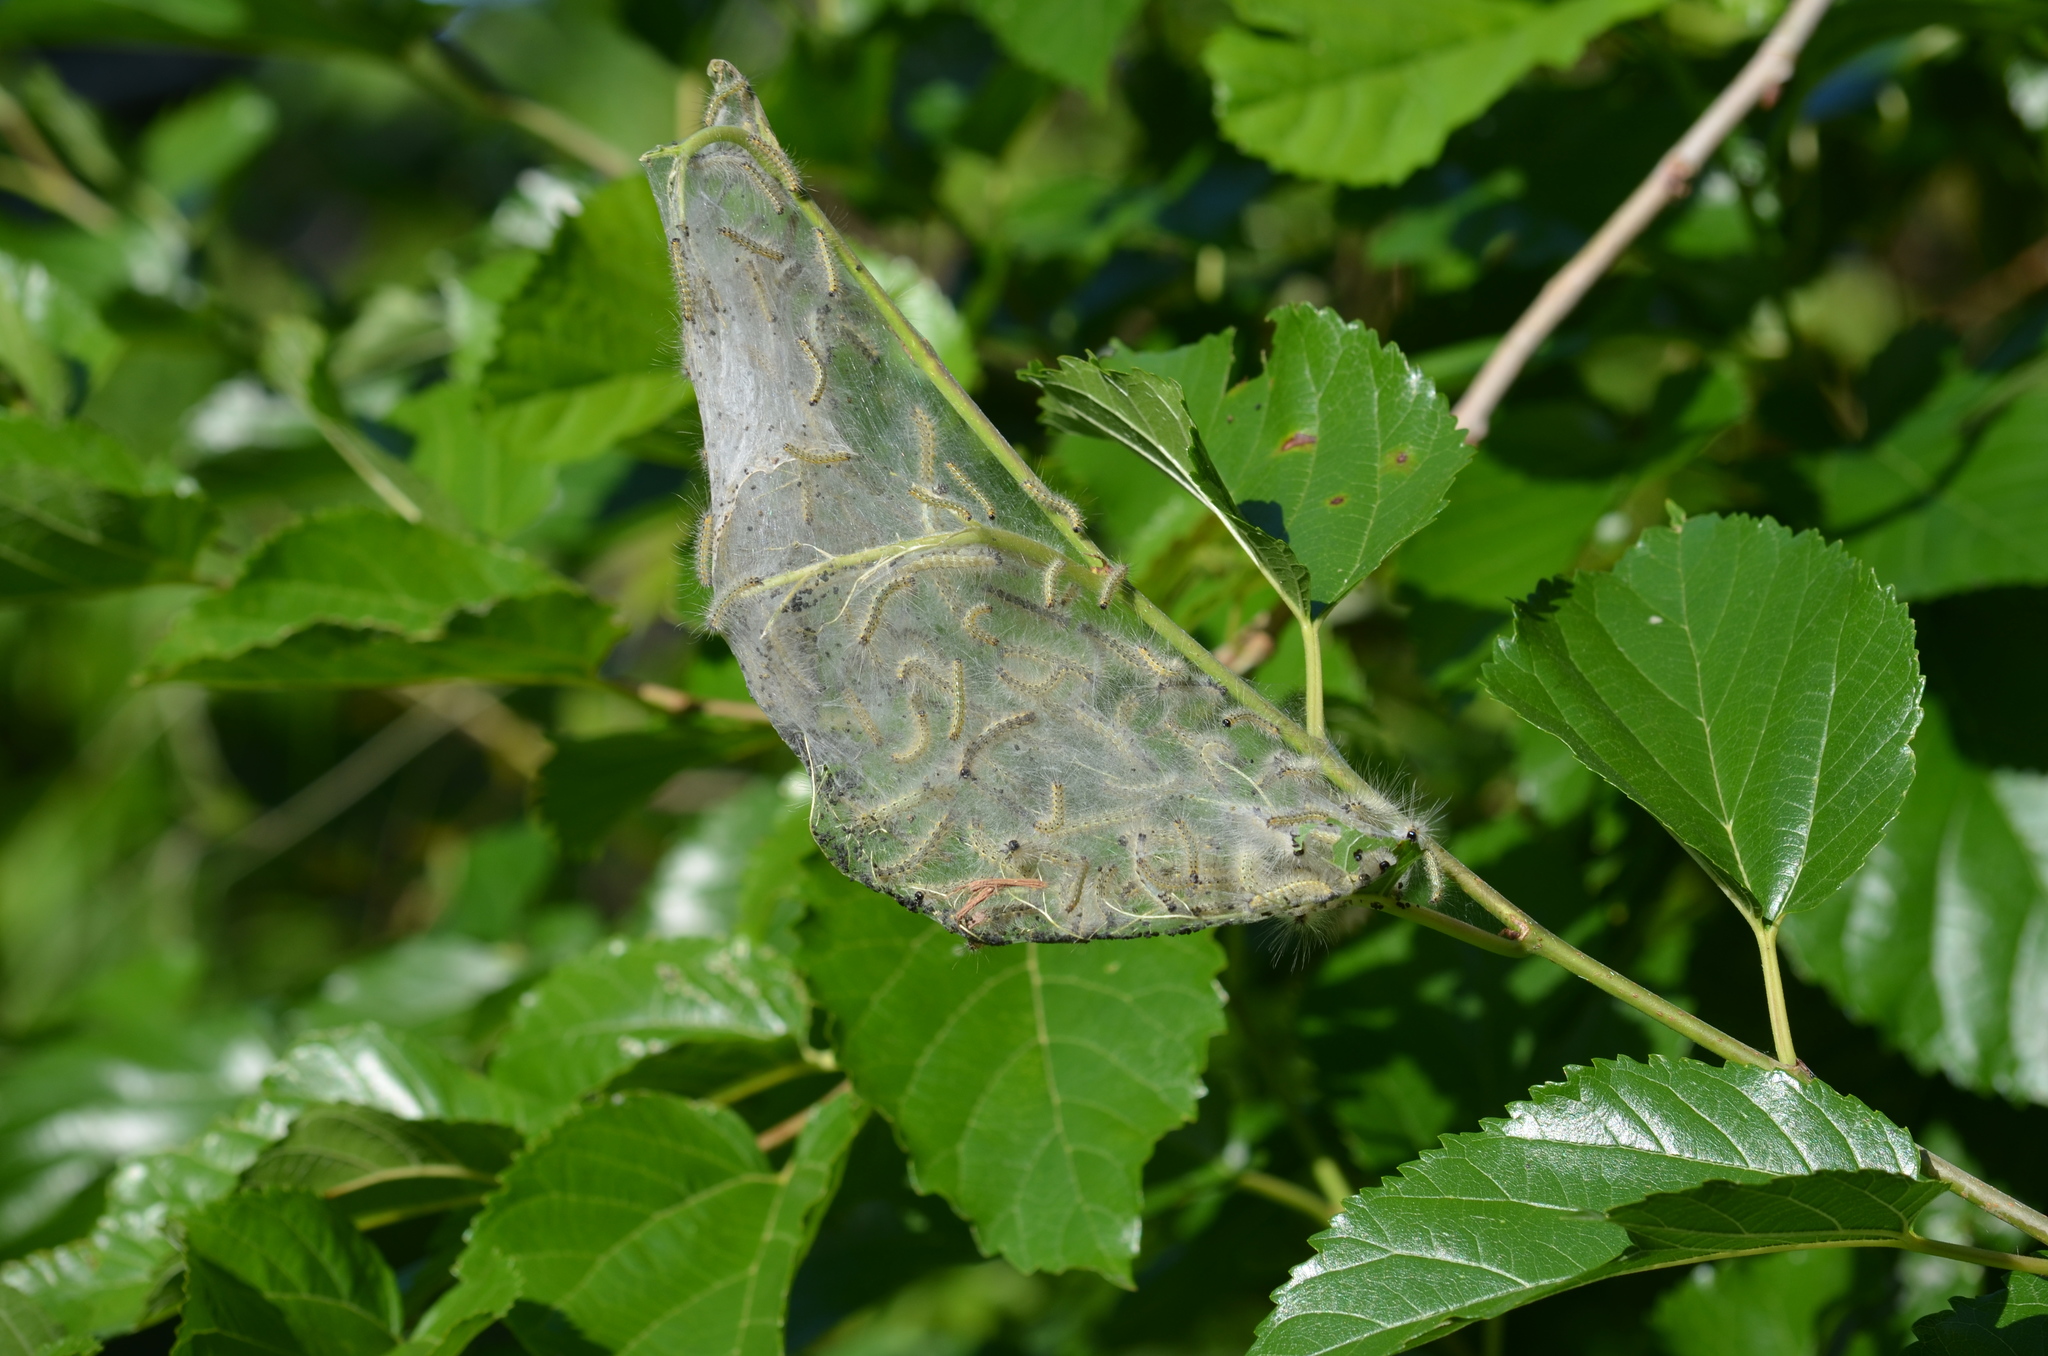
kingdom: Animalia
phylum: Arthropoda
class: Insecta
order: Lepidoptera
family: Erebidae
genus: Hyphantria
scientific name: Hyphantria cunea
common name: American white moth
